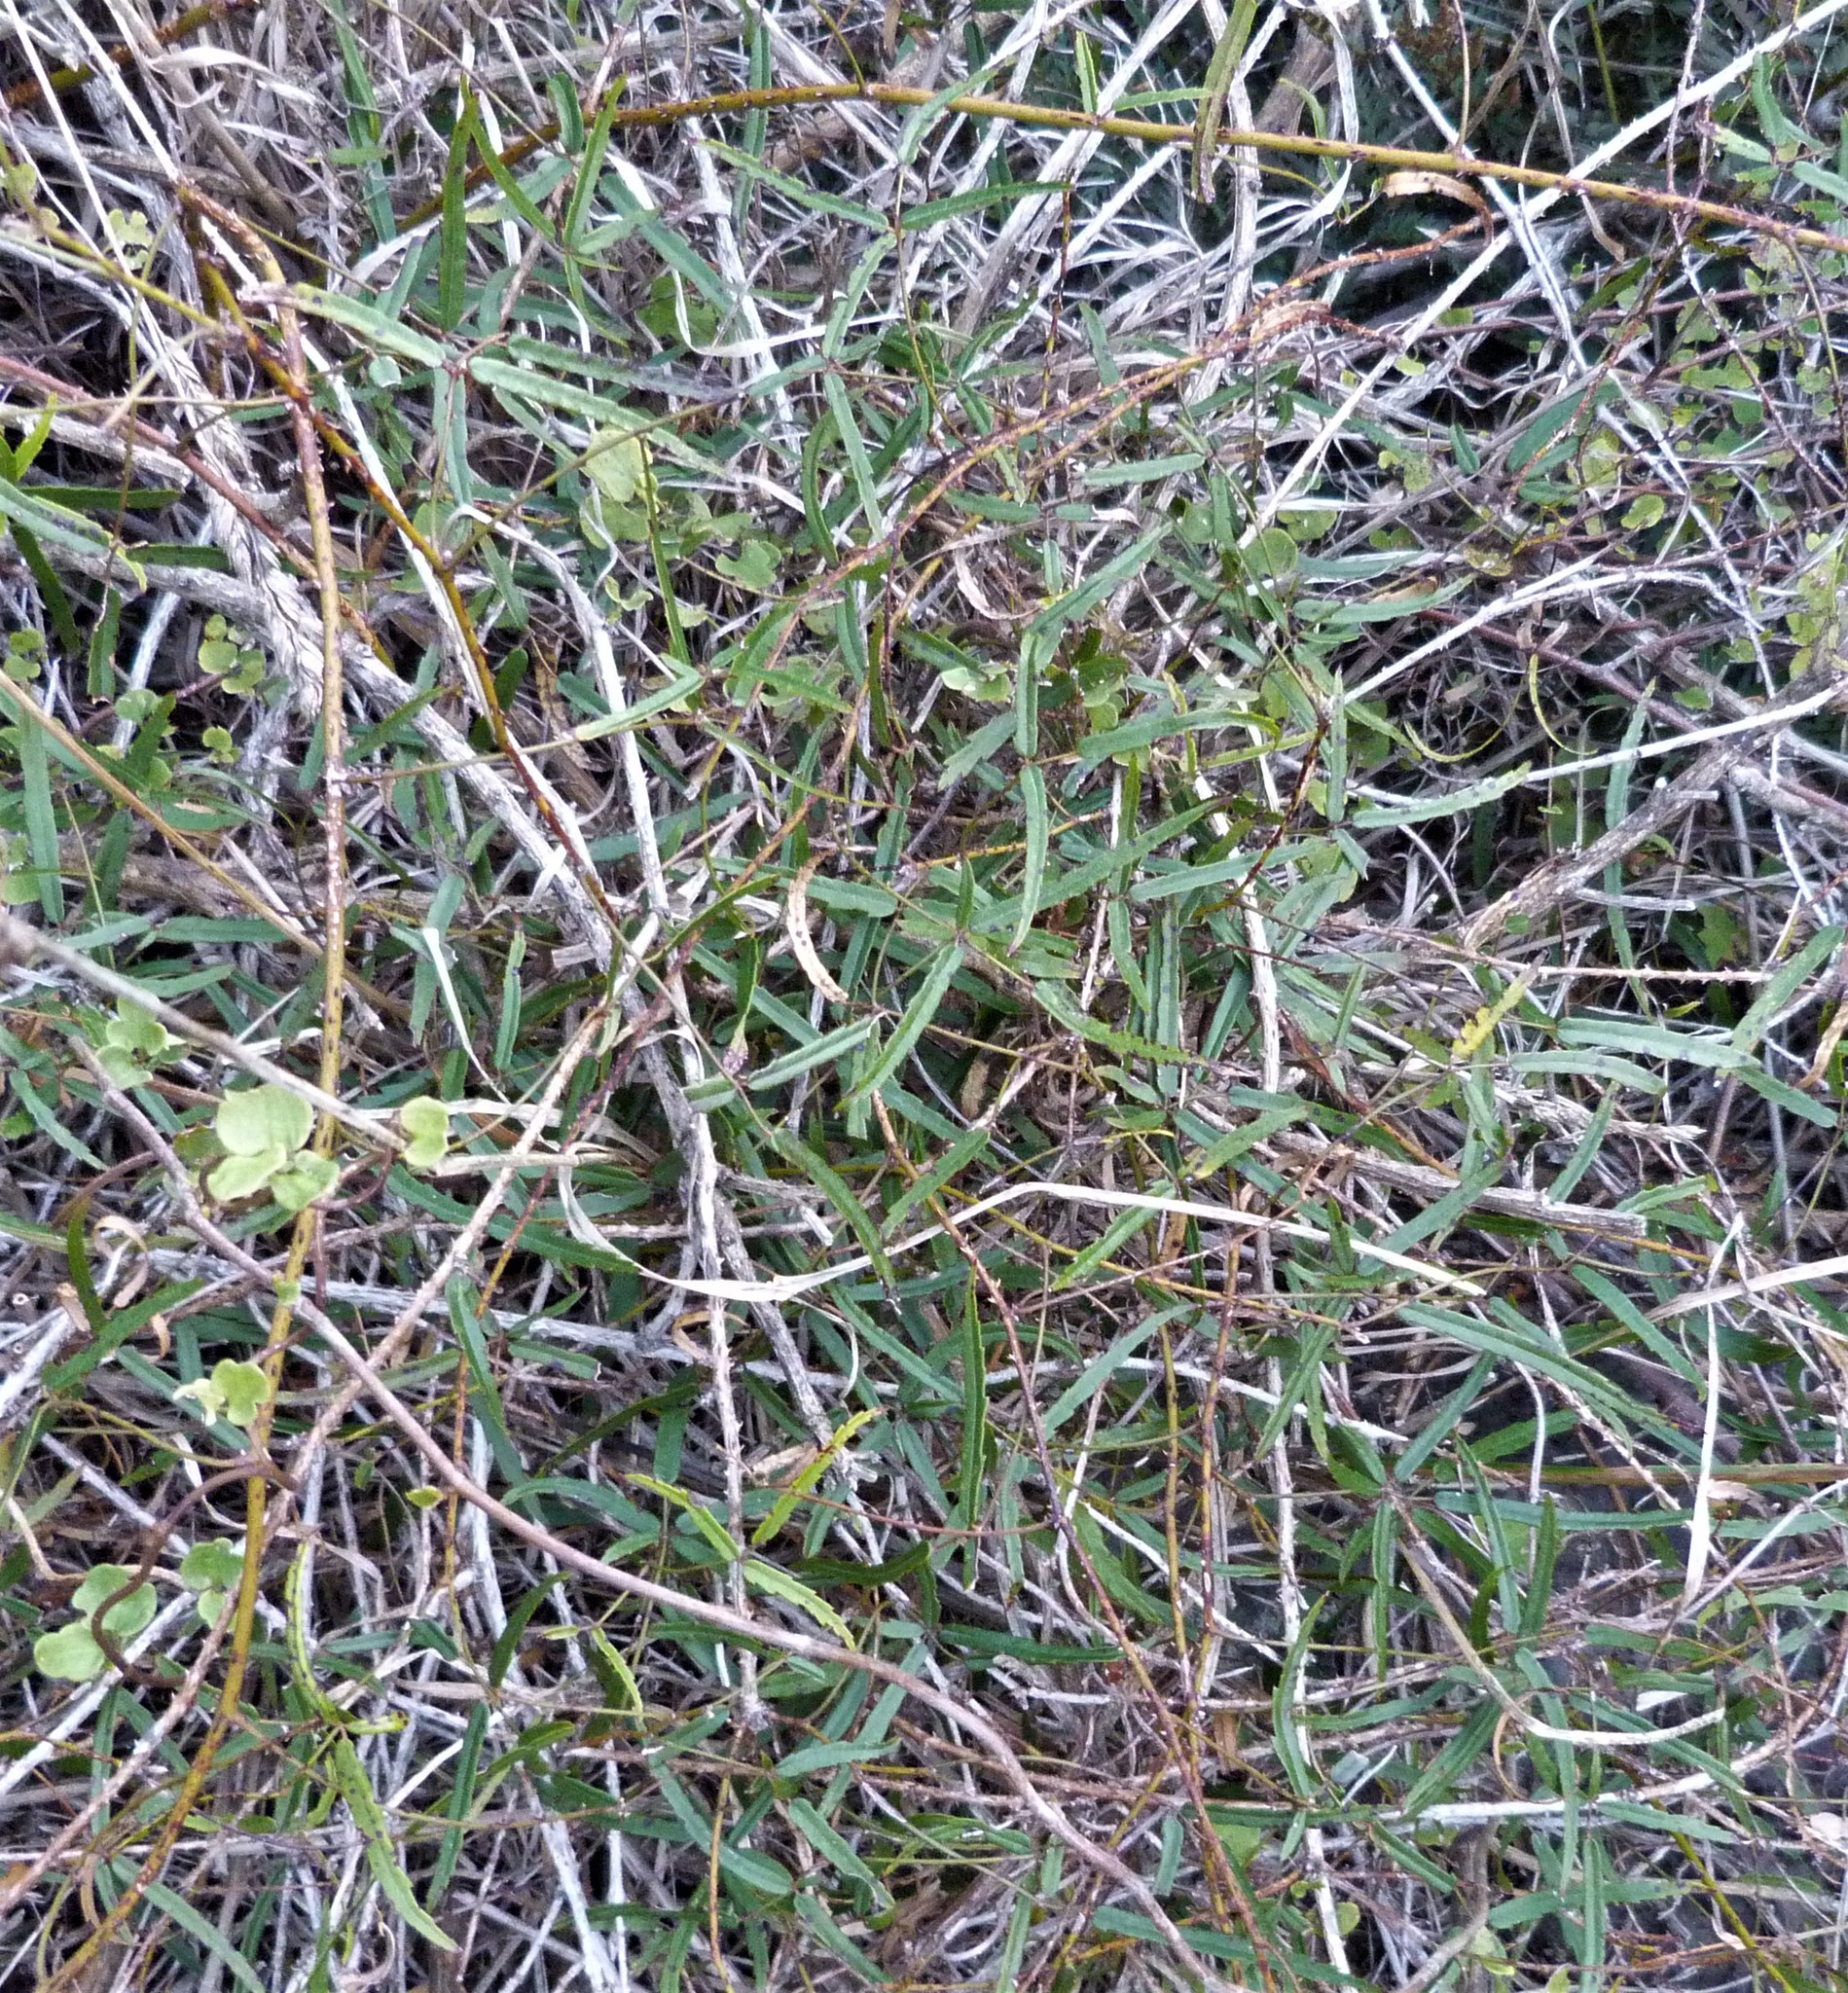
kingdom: Plantae
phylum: Tracheophyta
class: Magnoliopsida
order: Rosales
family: Rosaceae
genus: Rubus
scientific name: Rubus schmidelioides
